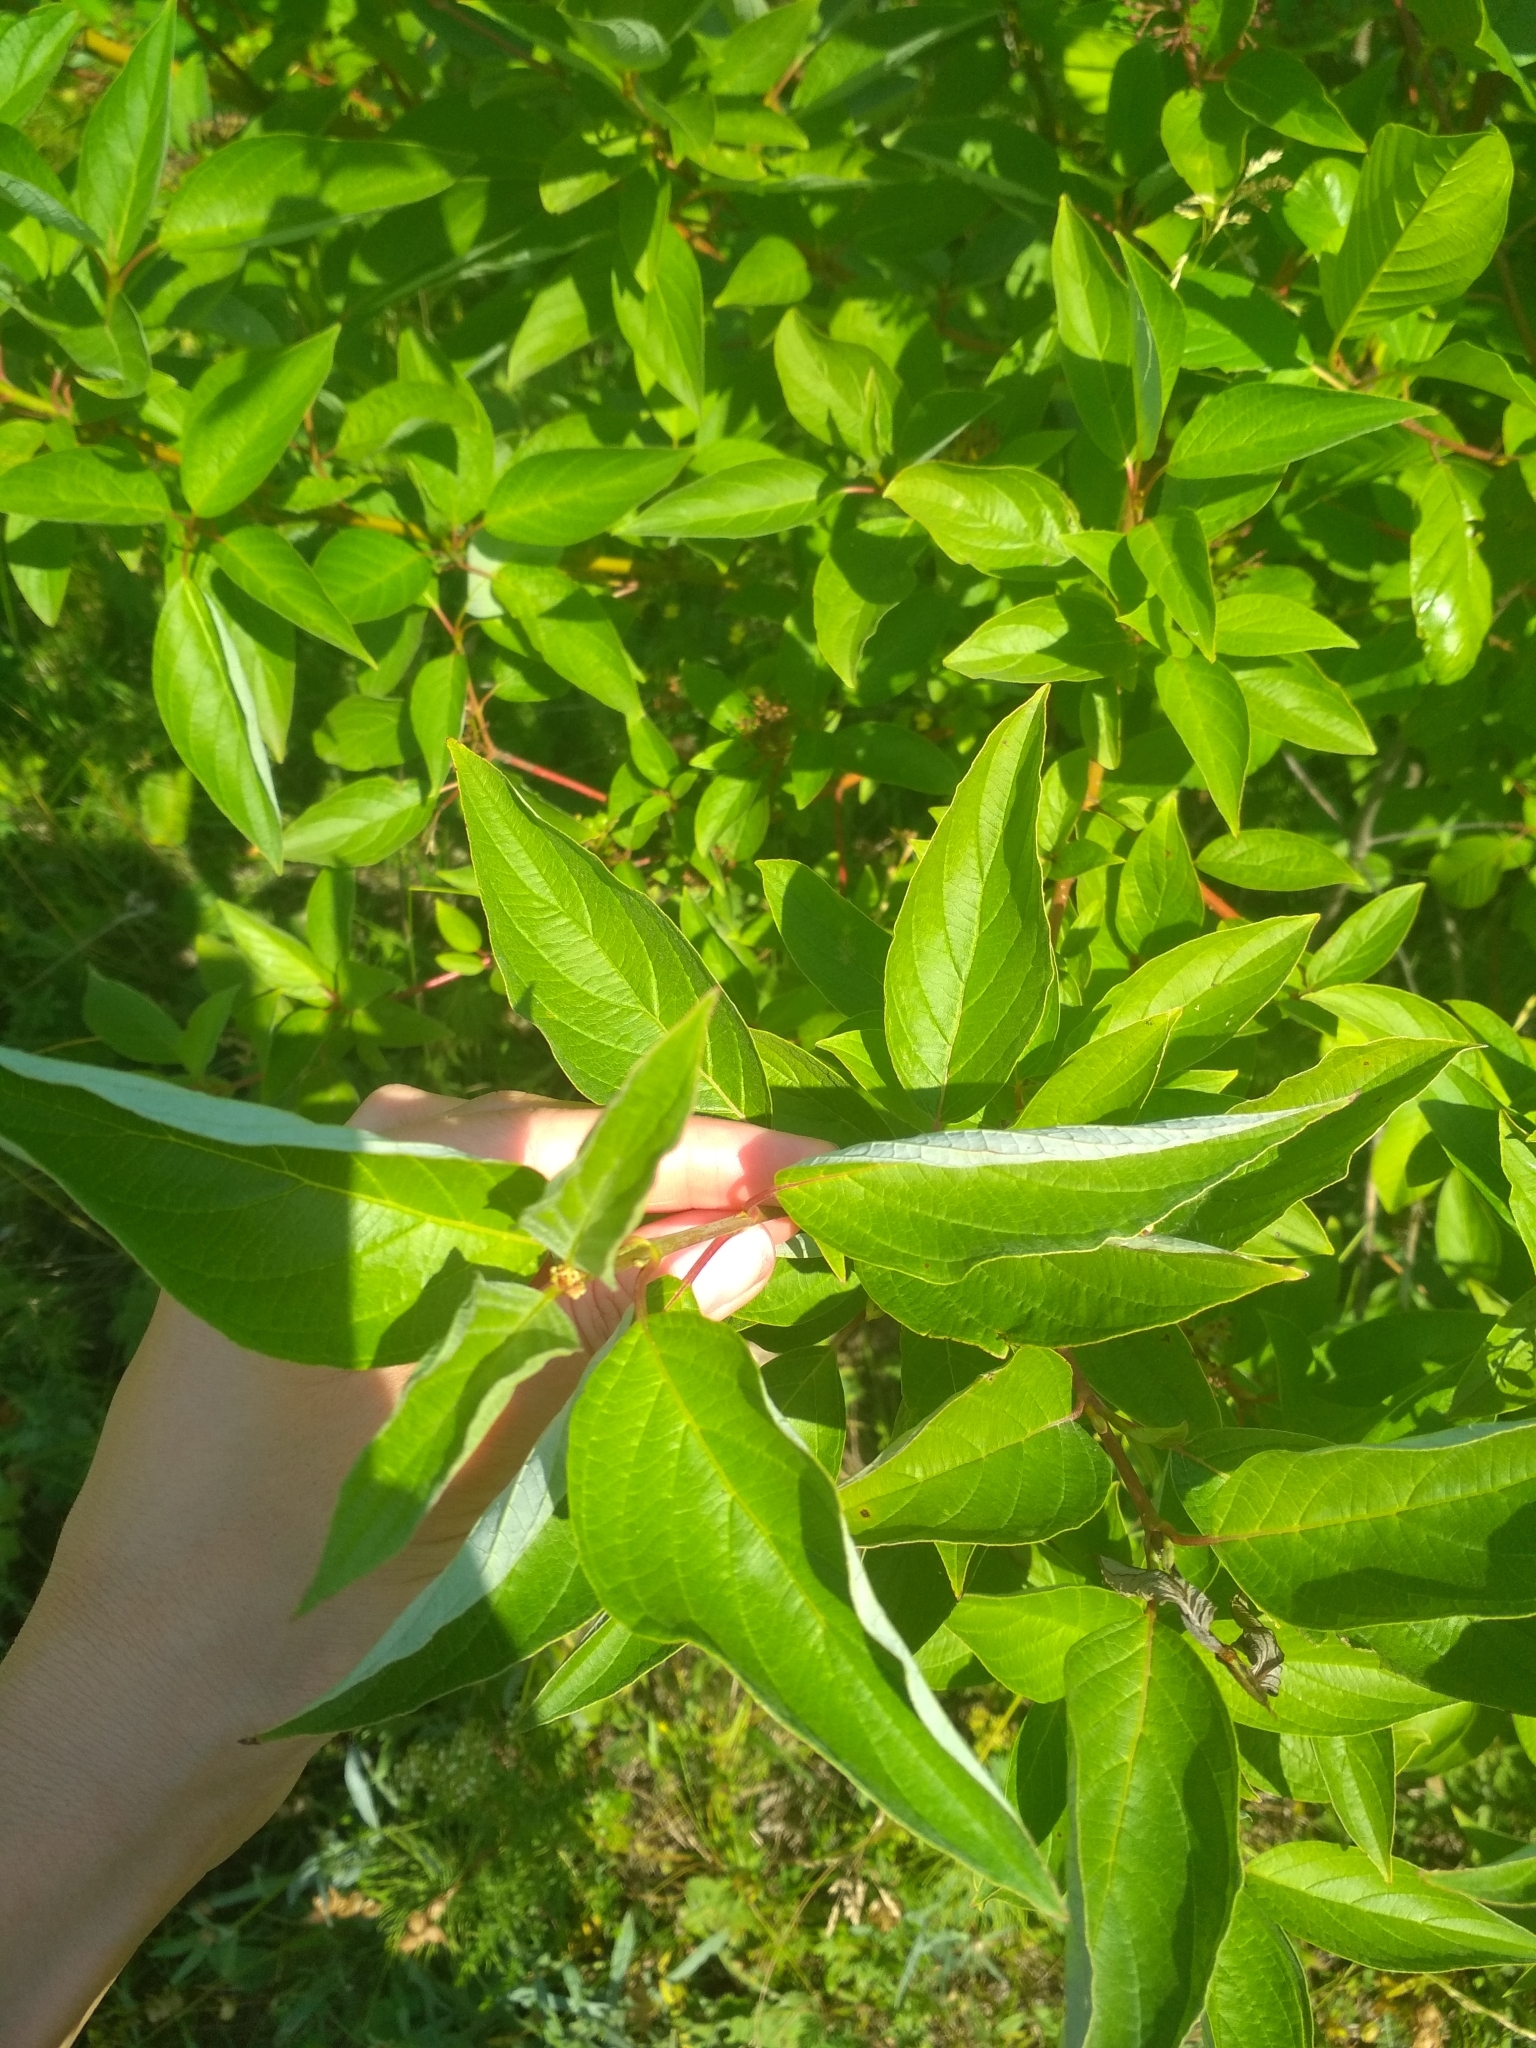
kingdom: Plantae
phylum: Tracheophyta
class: Magnoliopsida
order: Cornales
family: Cornaceae
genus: Cornus
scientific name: Cornus alba
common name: White dogwood
